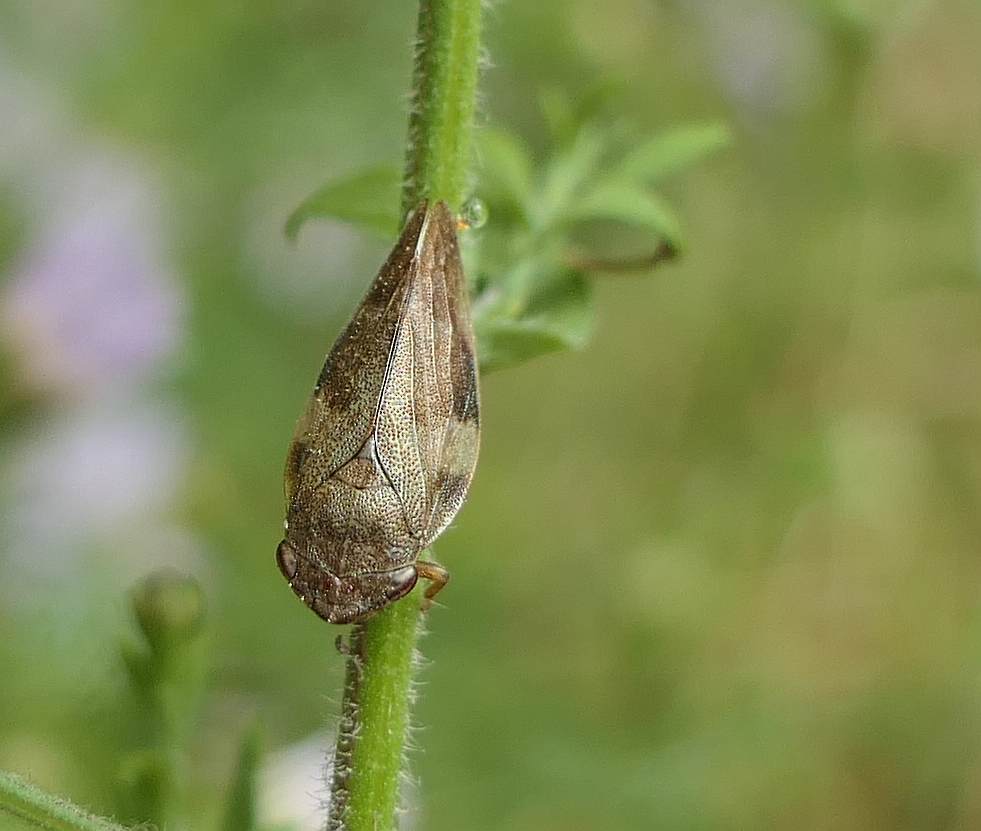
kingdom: Animalia
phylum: Arthropoda
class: Insecta
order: Hemiptera
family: Aphrophoridae
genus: Aphrophora
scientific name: Aphrophora alni
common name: European alder spittlebug
